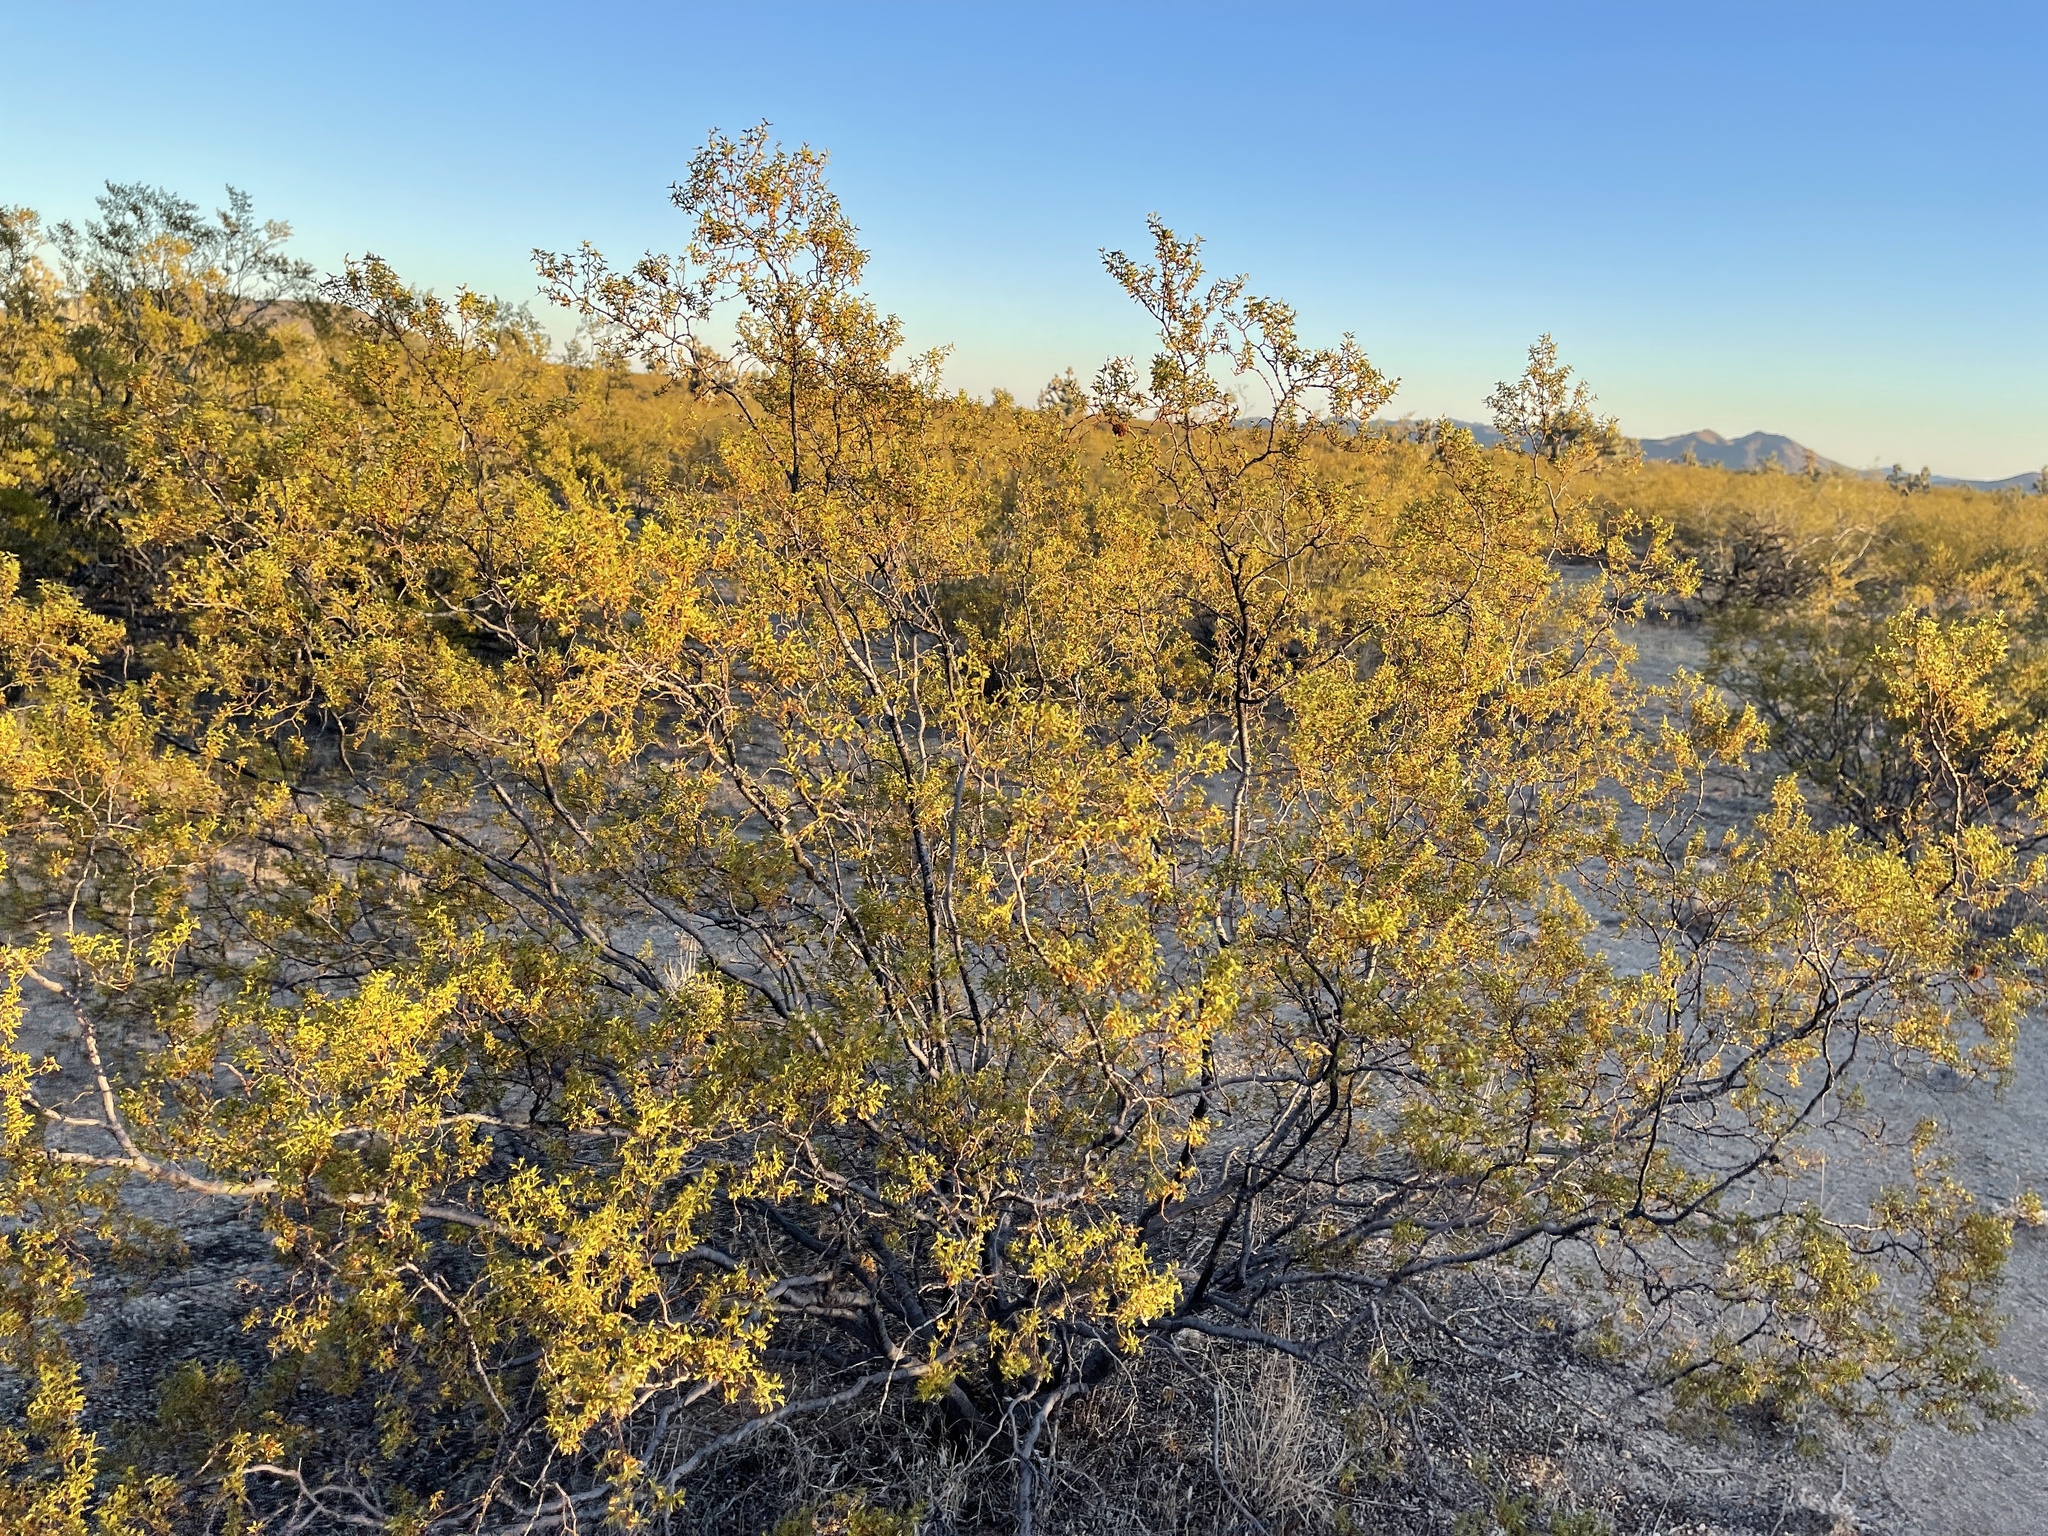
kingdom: Plantae
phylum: Tracheophyta
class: Magnoliopsida
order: Zygophyllales
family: Zygophyllaceae
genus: Larrea
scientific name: Larrea tridentata
